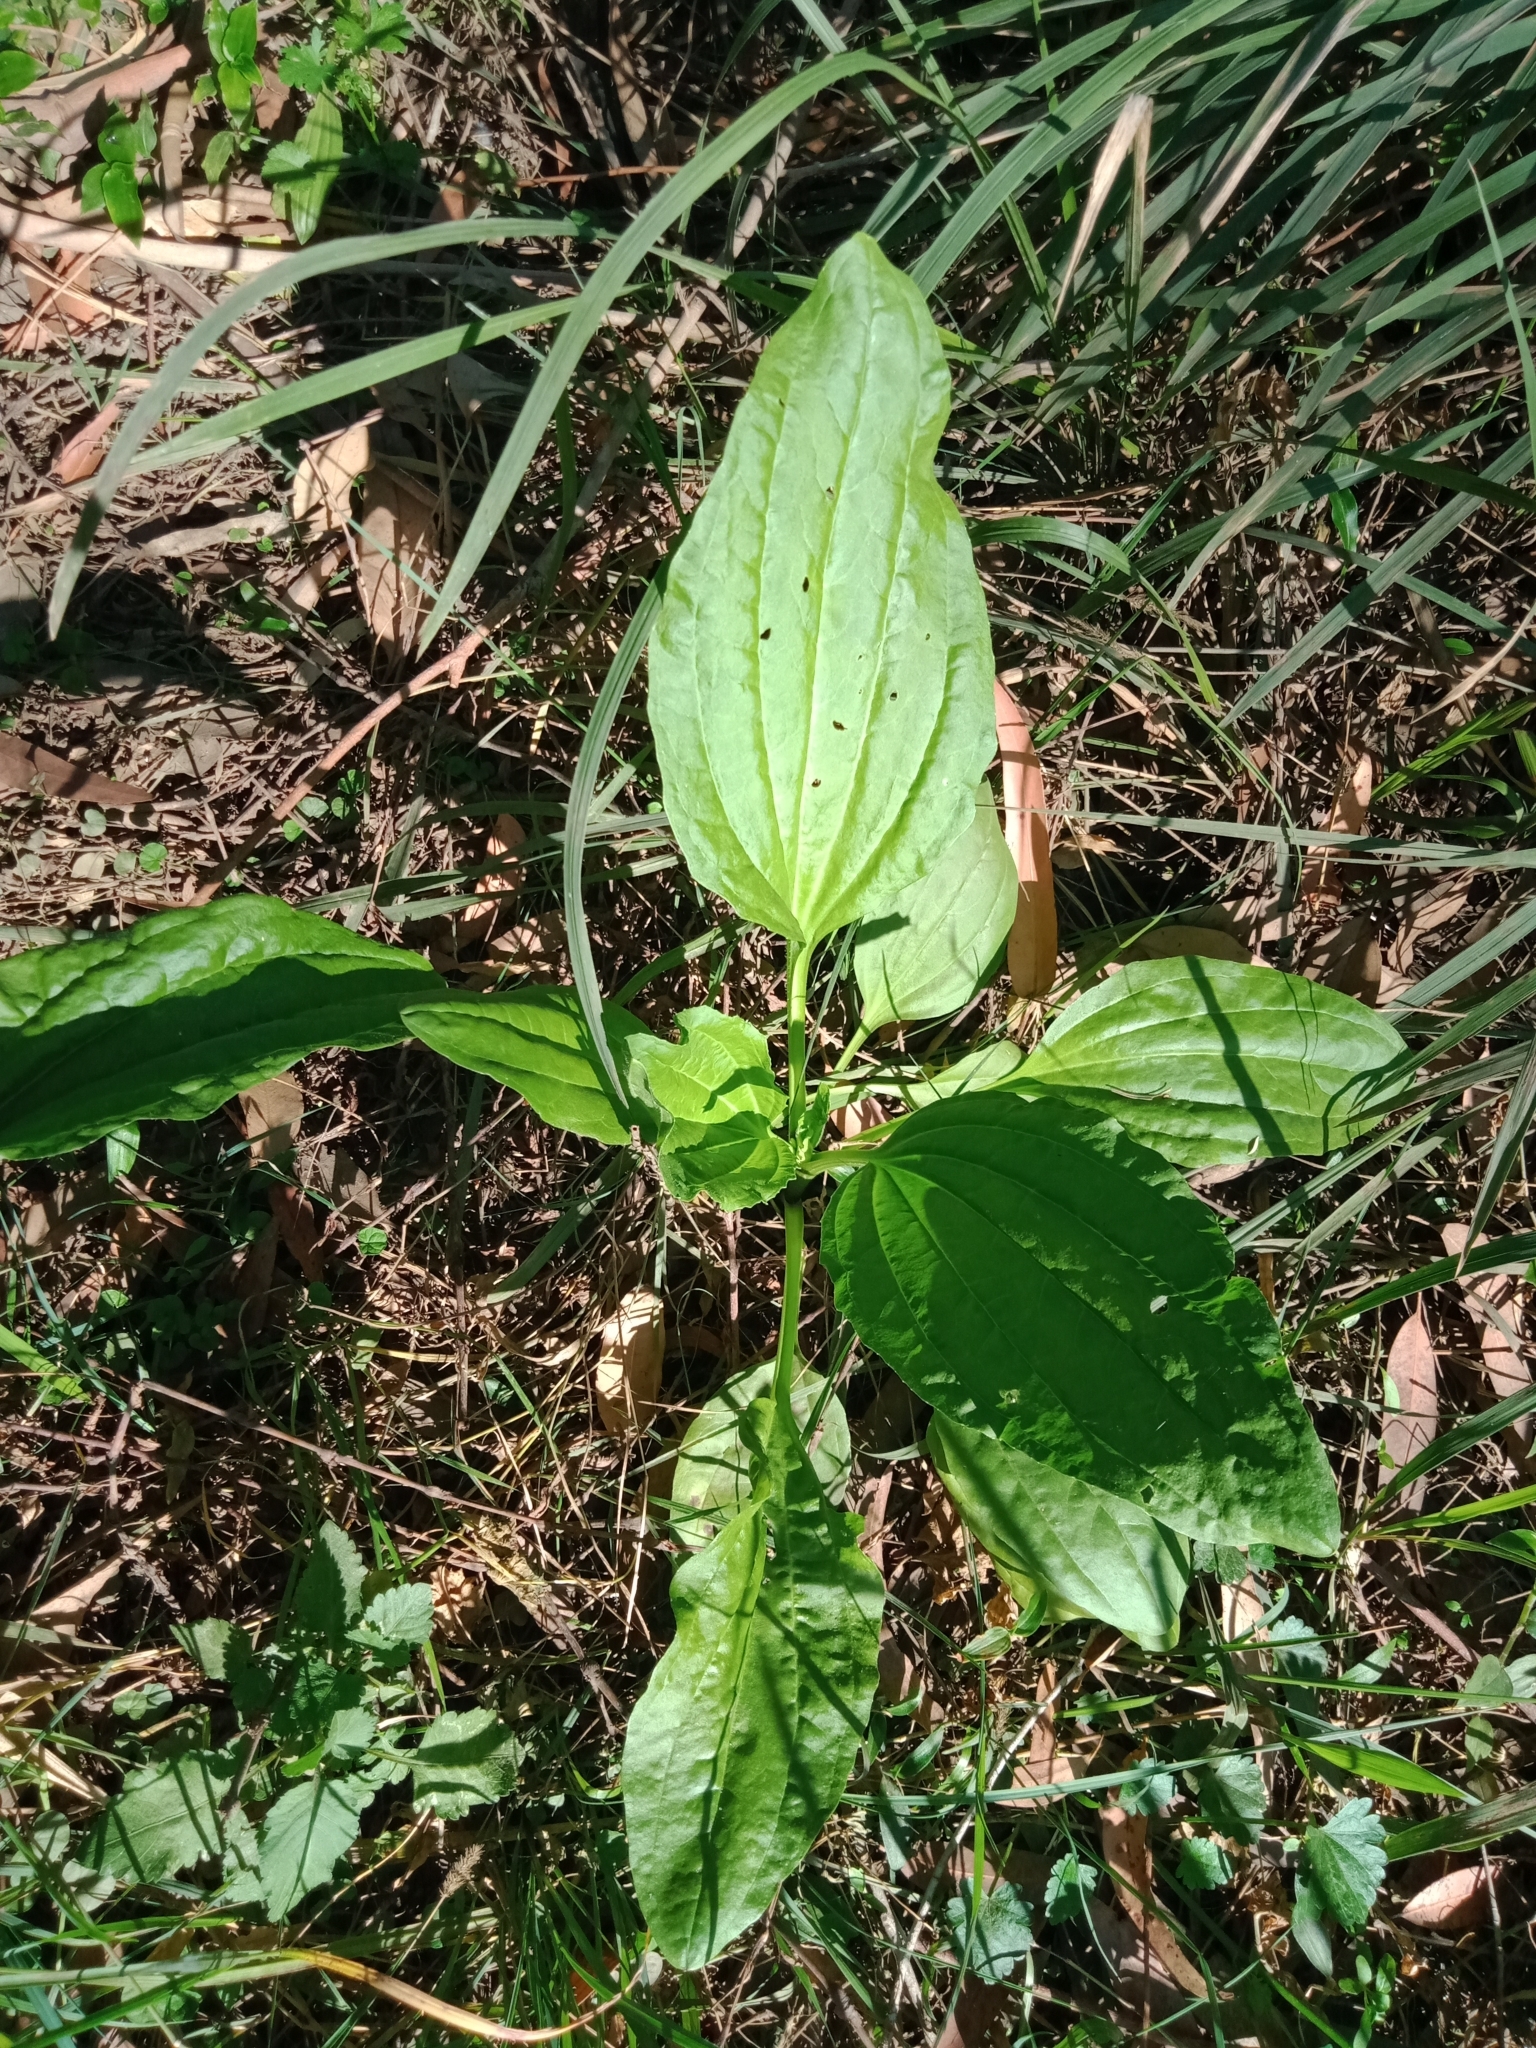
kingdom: Plantae
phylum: Tracheophyta
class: Magnoliopsida
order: Lamiales
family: Plantaginaceae
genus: Plantago
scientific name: Plantago major
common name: Common plantain
